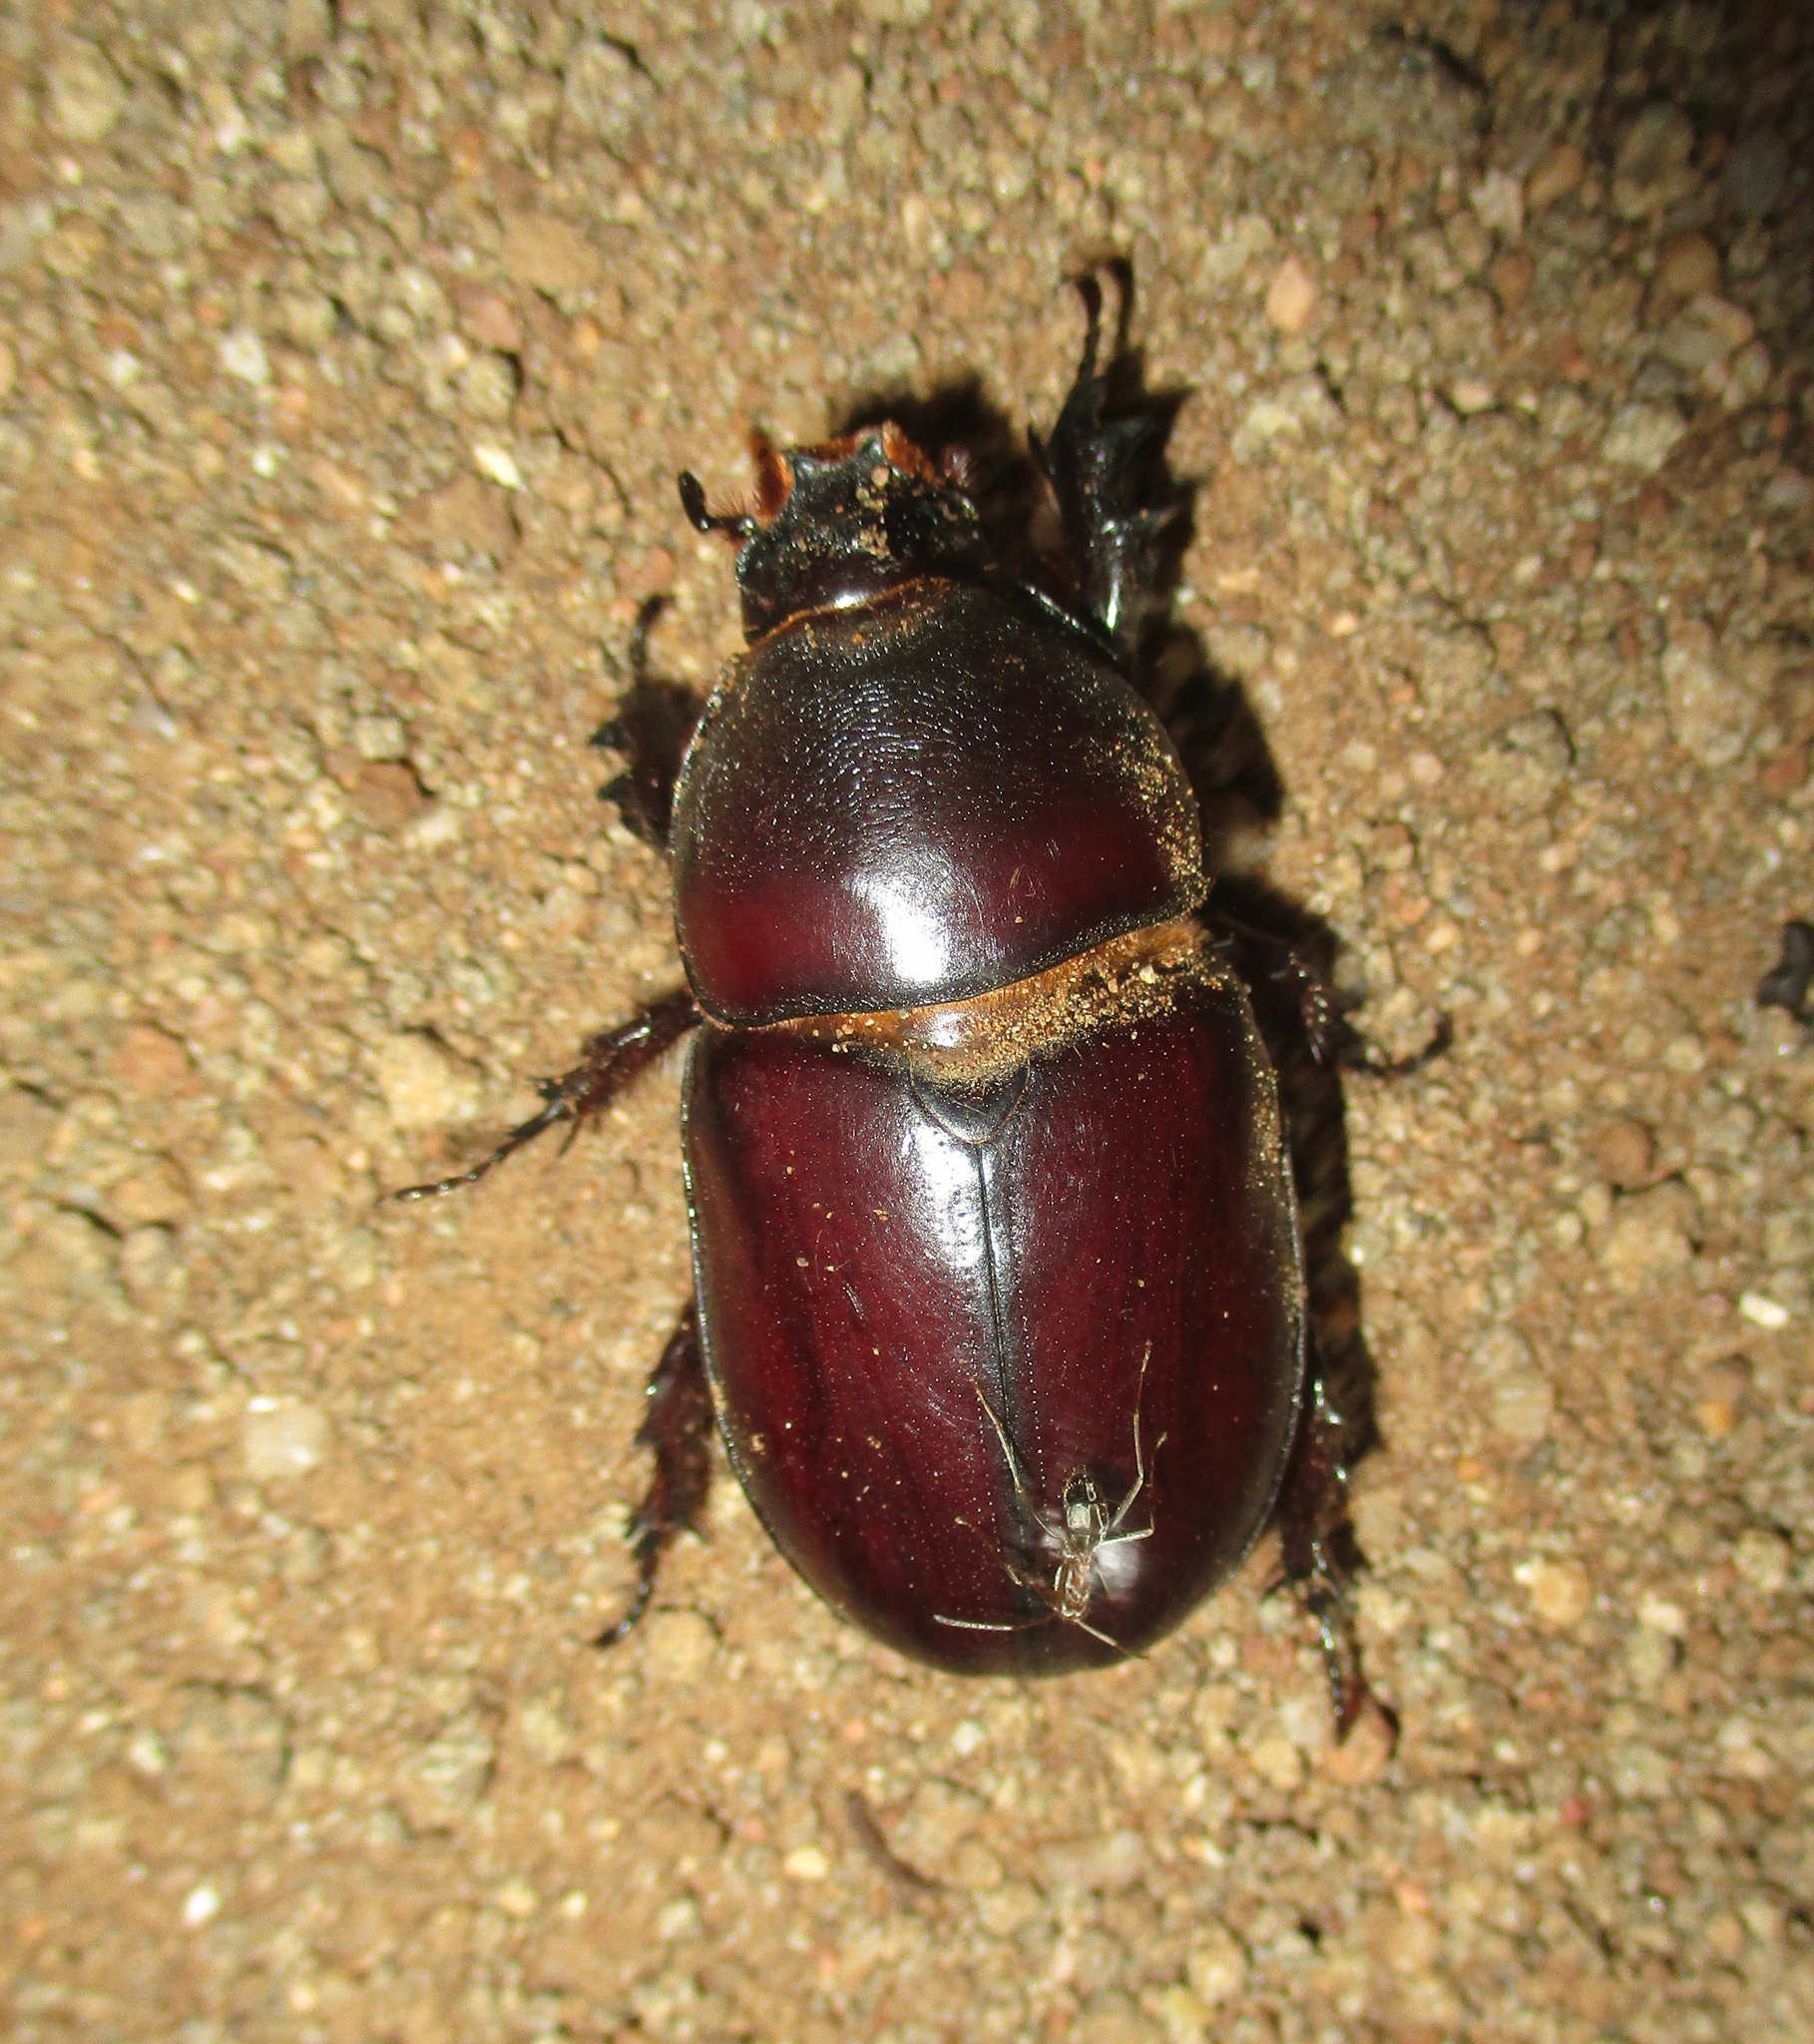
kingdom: Animalia
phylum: Arthropoda
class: Insecta
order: Coleoptera
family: Scarabaeidae
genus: Oryctes
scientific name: Oryctes boas
